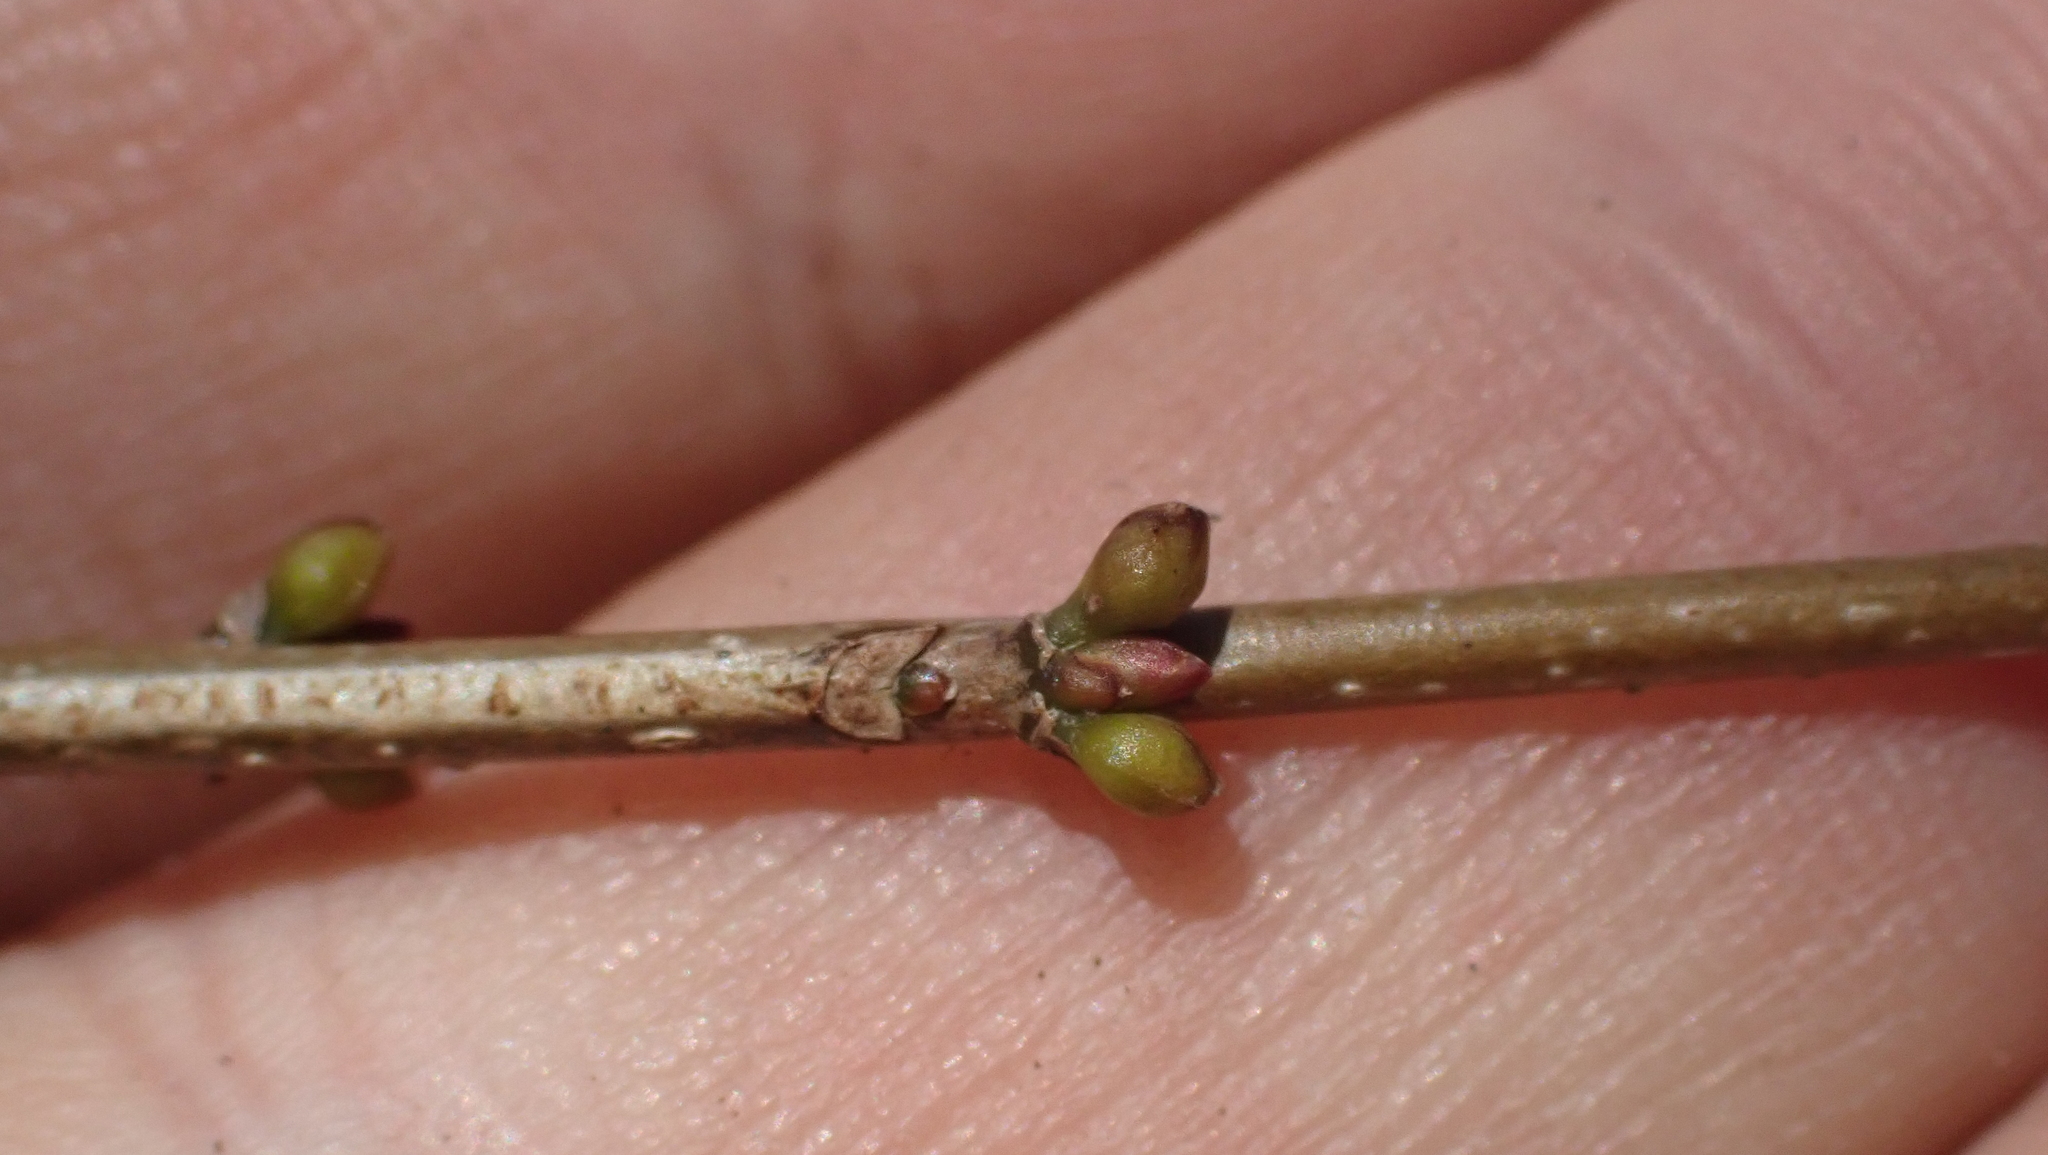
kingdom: Plantae
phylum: Tracheophyta
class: Magnoliopsida
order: Laurales
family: Lauraceae
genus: Lindera
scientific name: Lindera benzoin
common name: Spicebush
